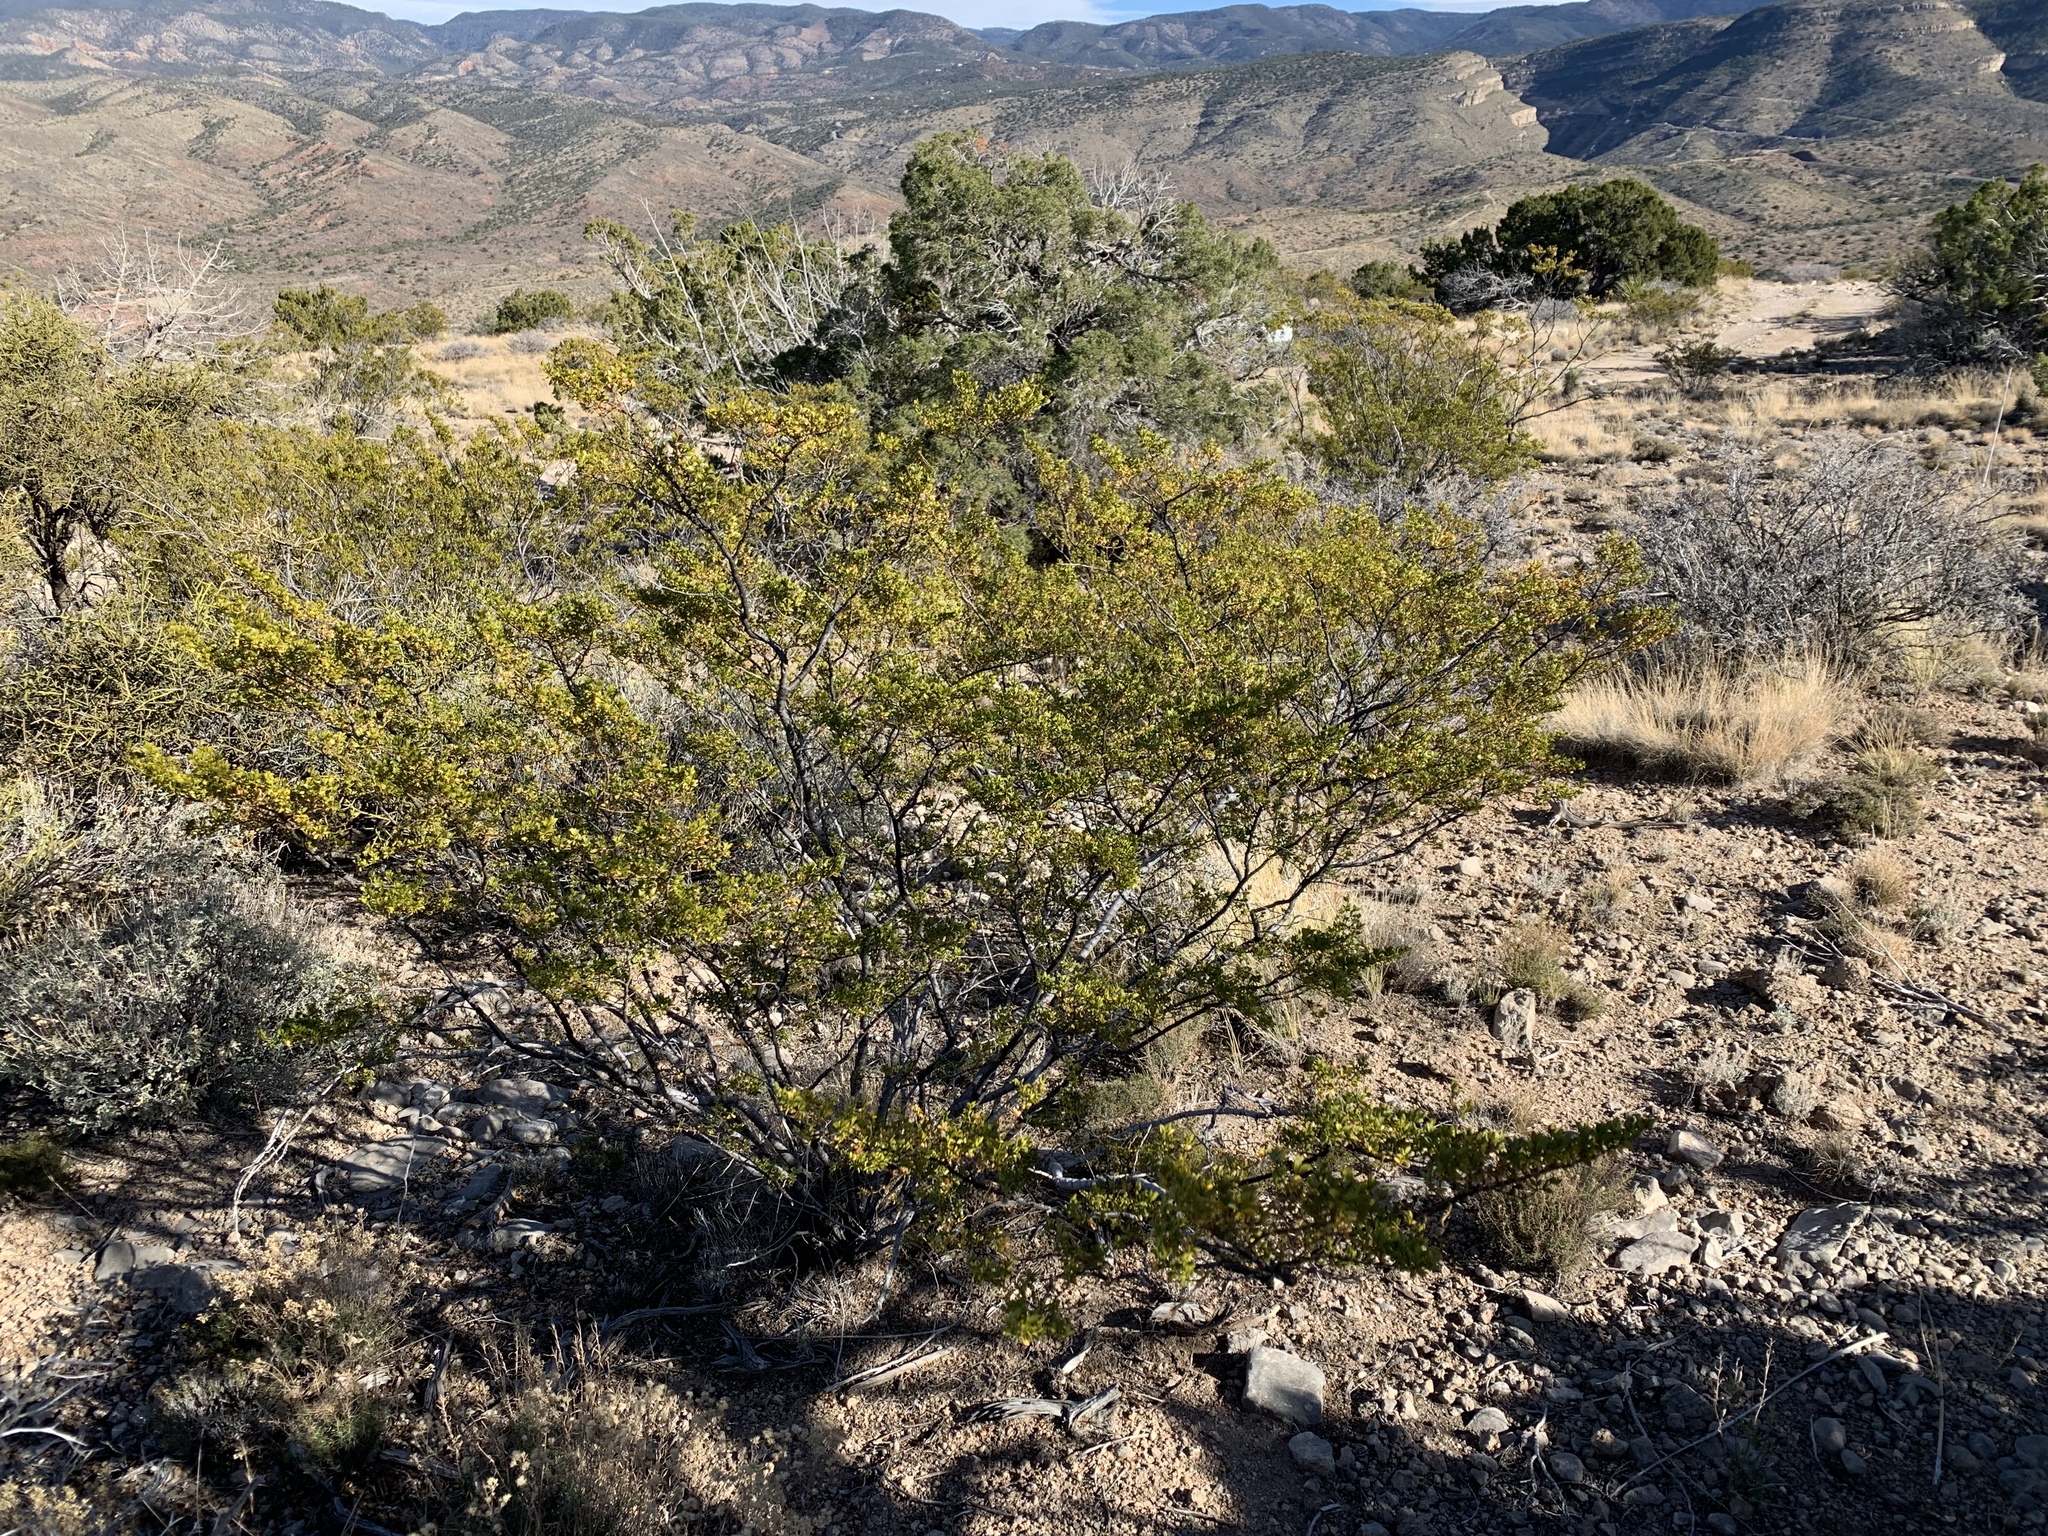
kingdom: Plantae
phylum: Tracheophyta
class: Magnoliopsida
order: Zygophyllales
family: Zygophyllaceae
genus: Larrea
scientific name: Larrea tridentata
